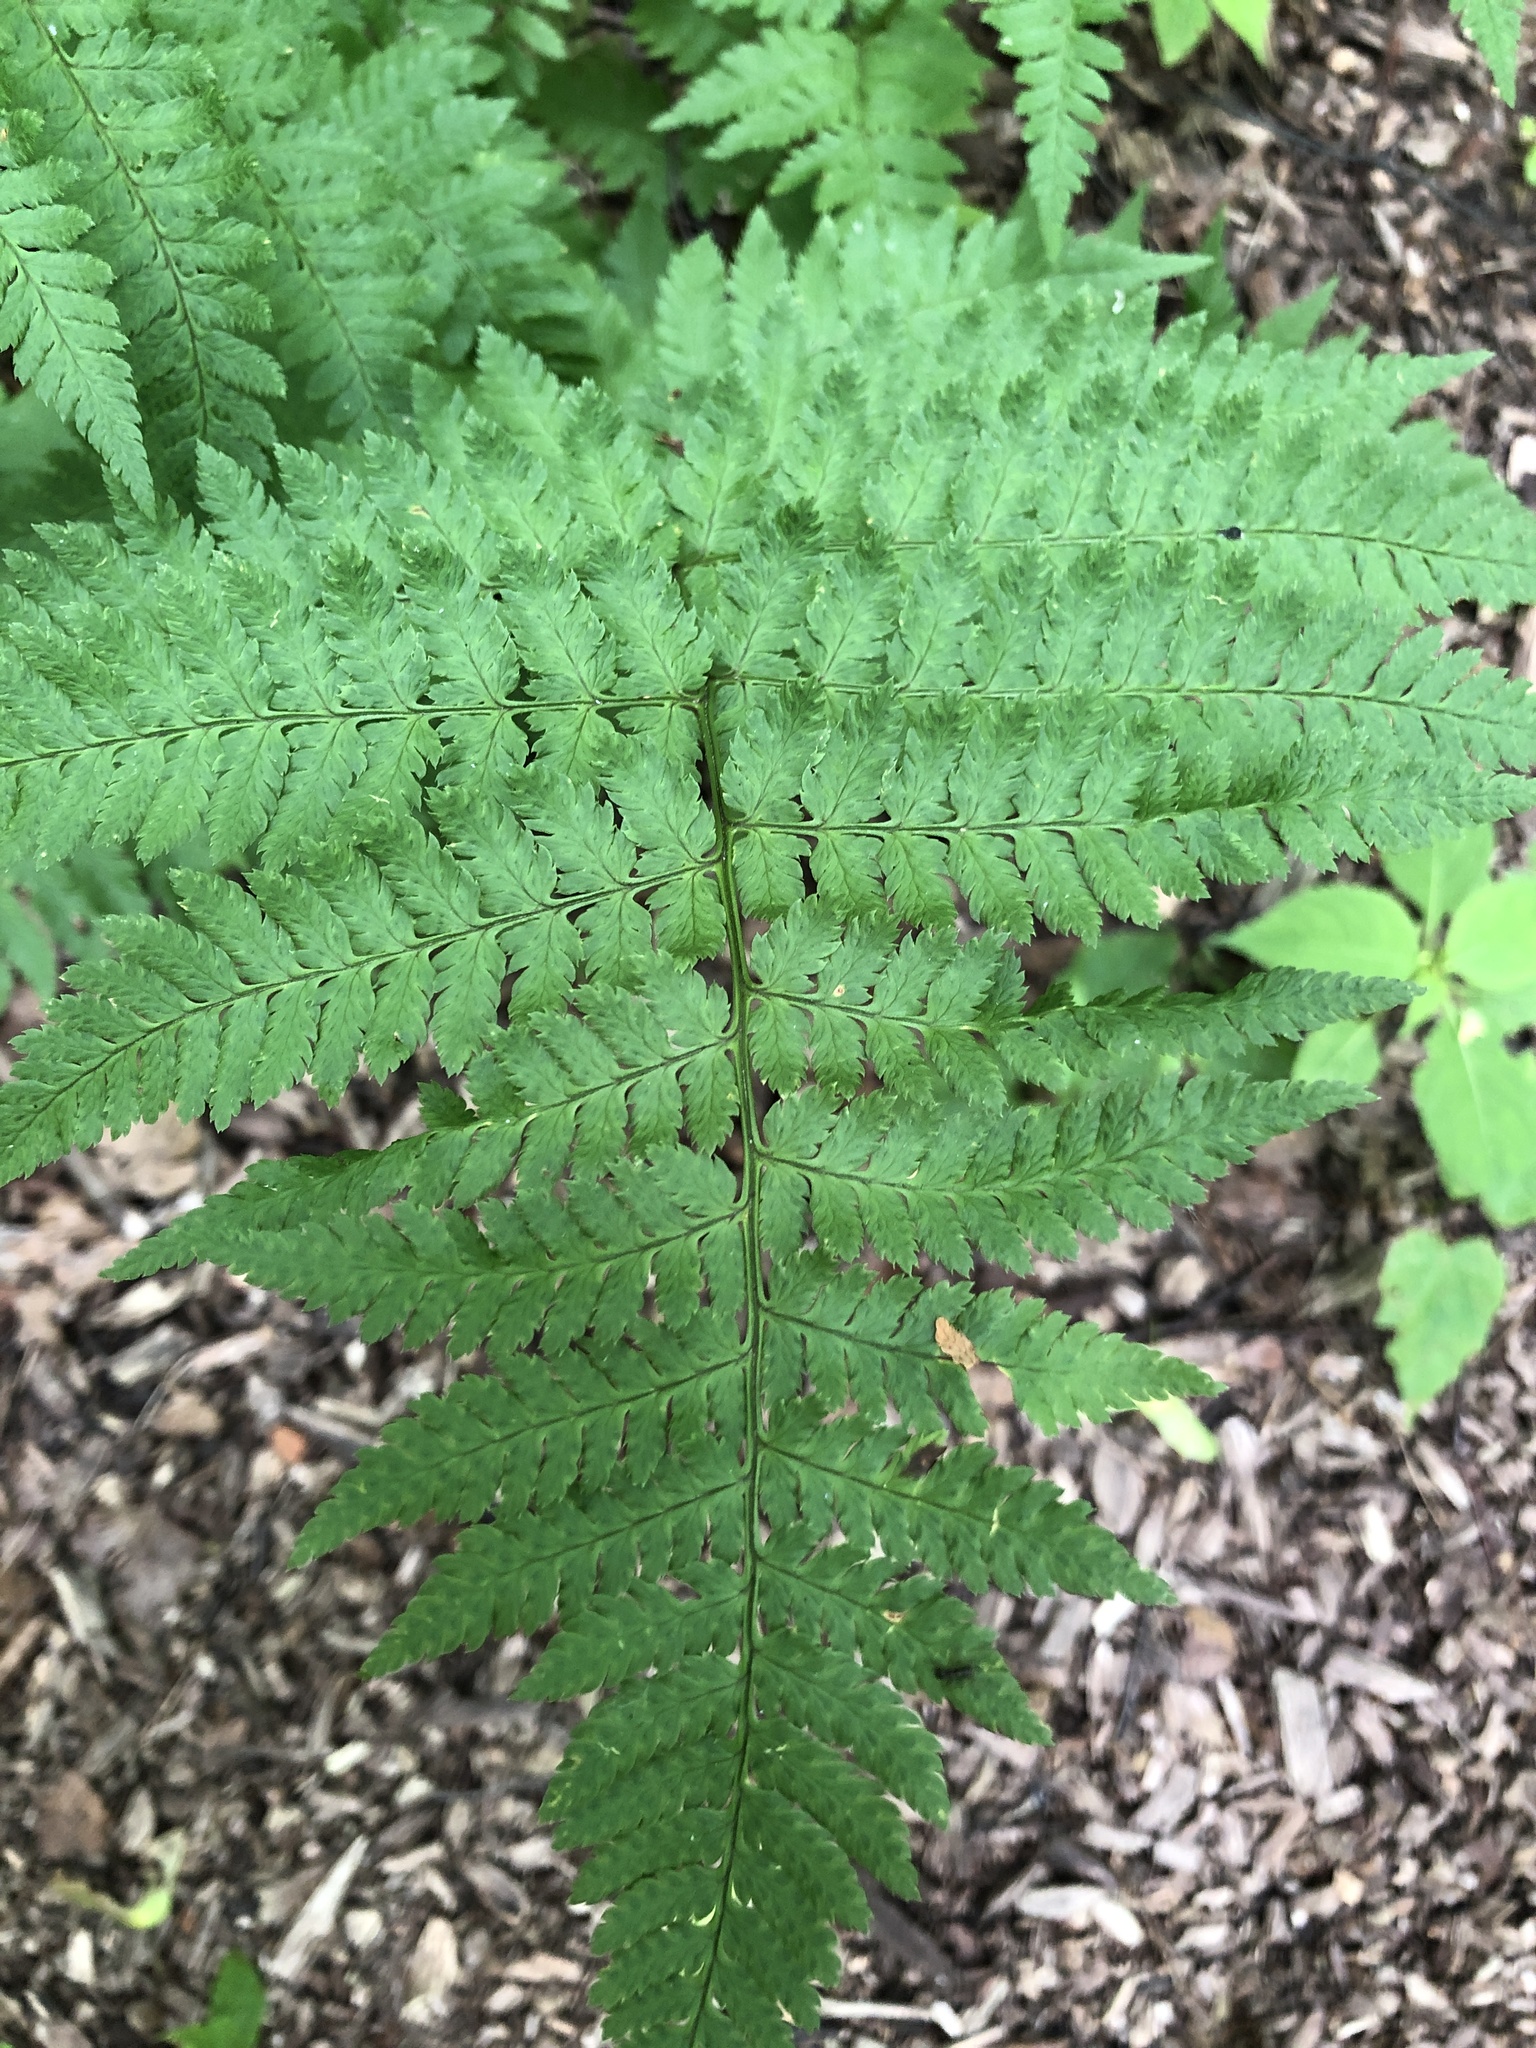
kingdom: Plantae
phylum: Tracheophyta
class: Polypodiopsida
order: Polypodiales
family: Dryopteridaceae
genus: Dryopteris
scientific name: Dryopteris carthusiana
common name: Narrow buckler-fern
